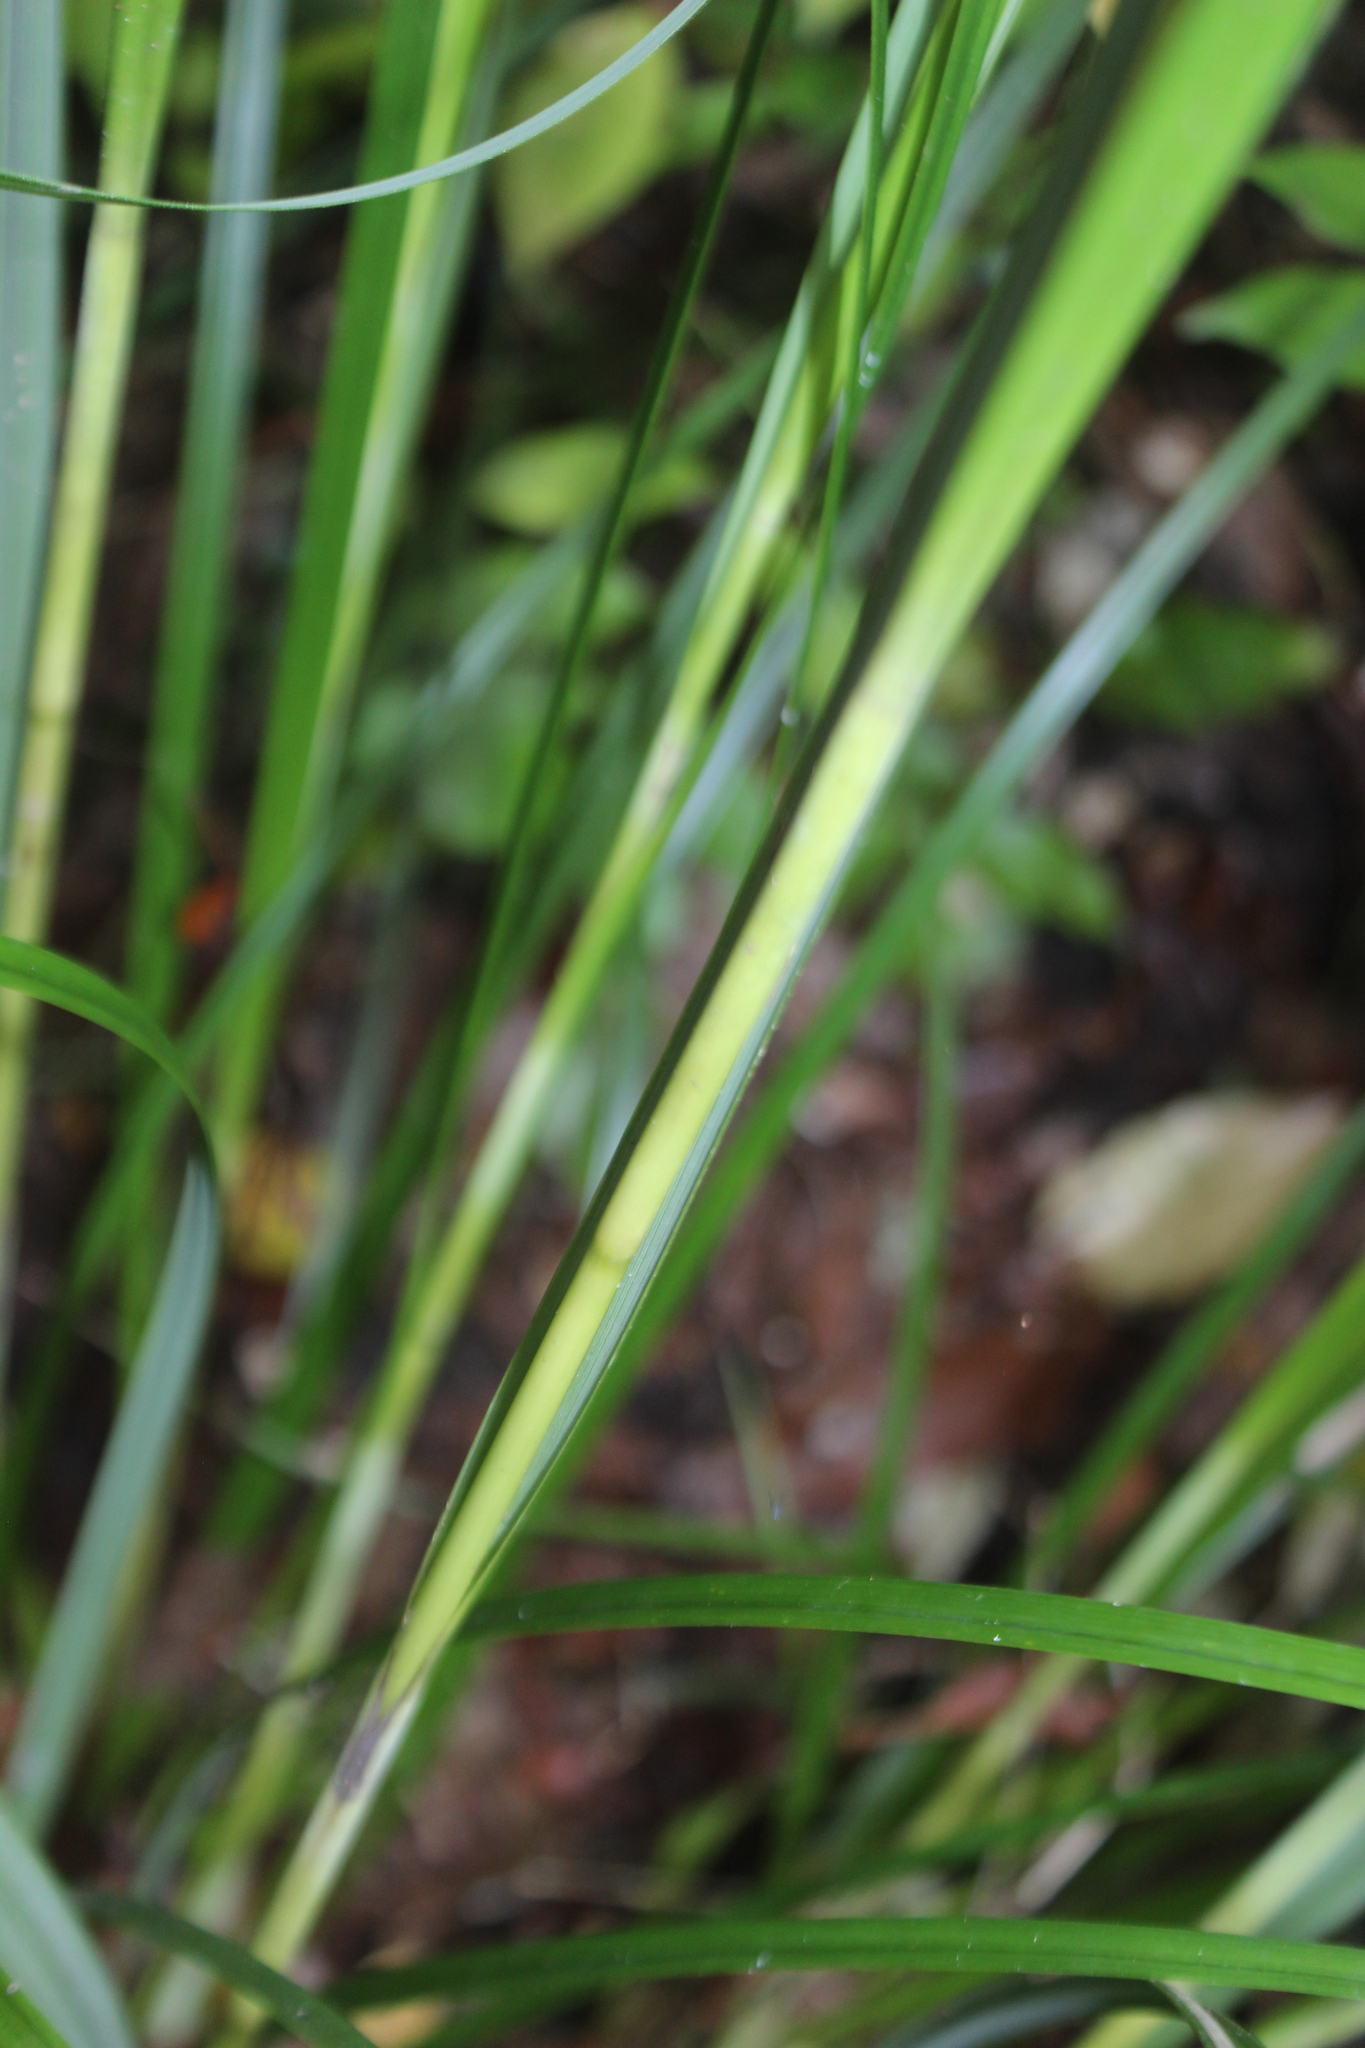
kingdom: Plantae
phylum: Tracheophyta
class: Liliopsida
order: Poales
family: Cyperaceae
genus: Gahnia
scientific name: Gahnia lacera
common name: Sawsedge
